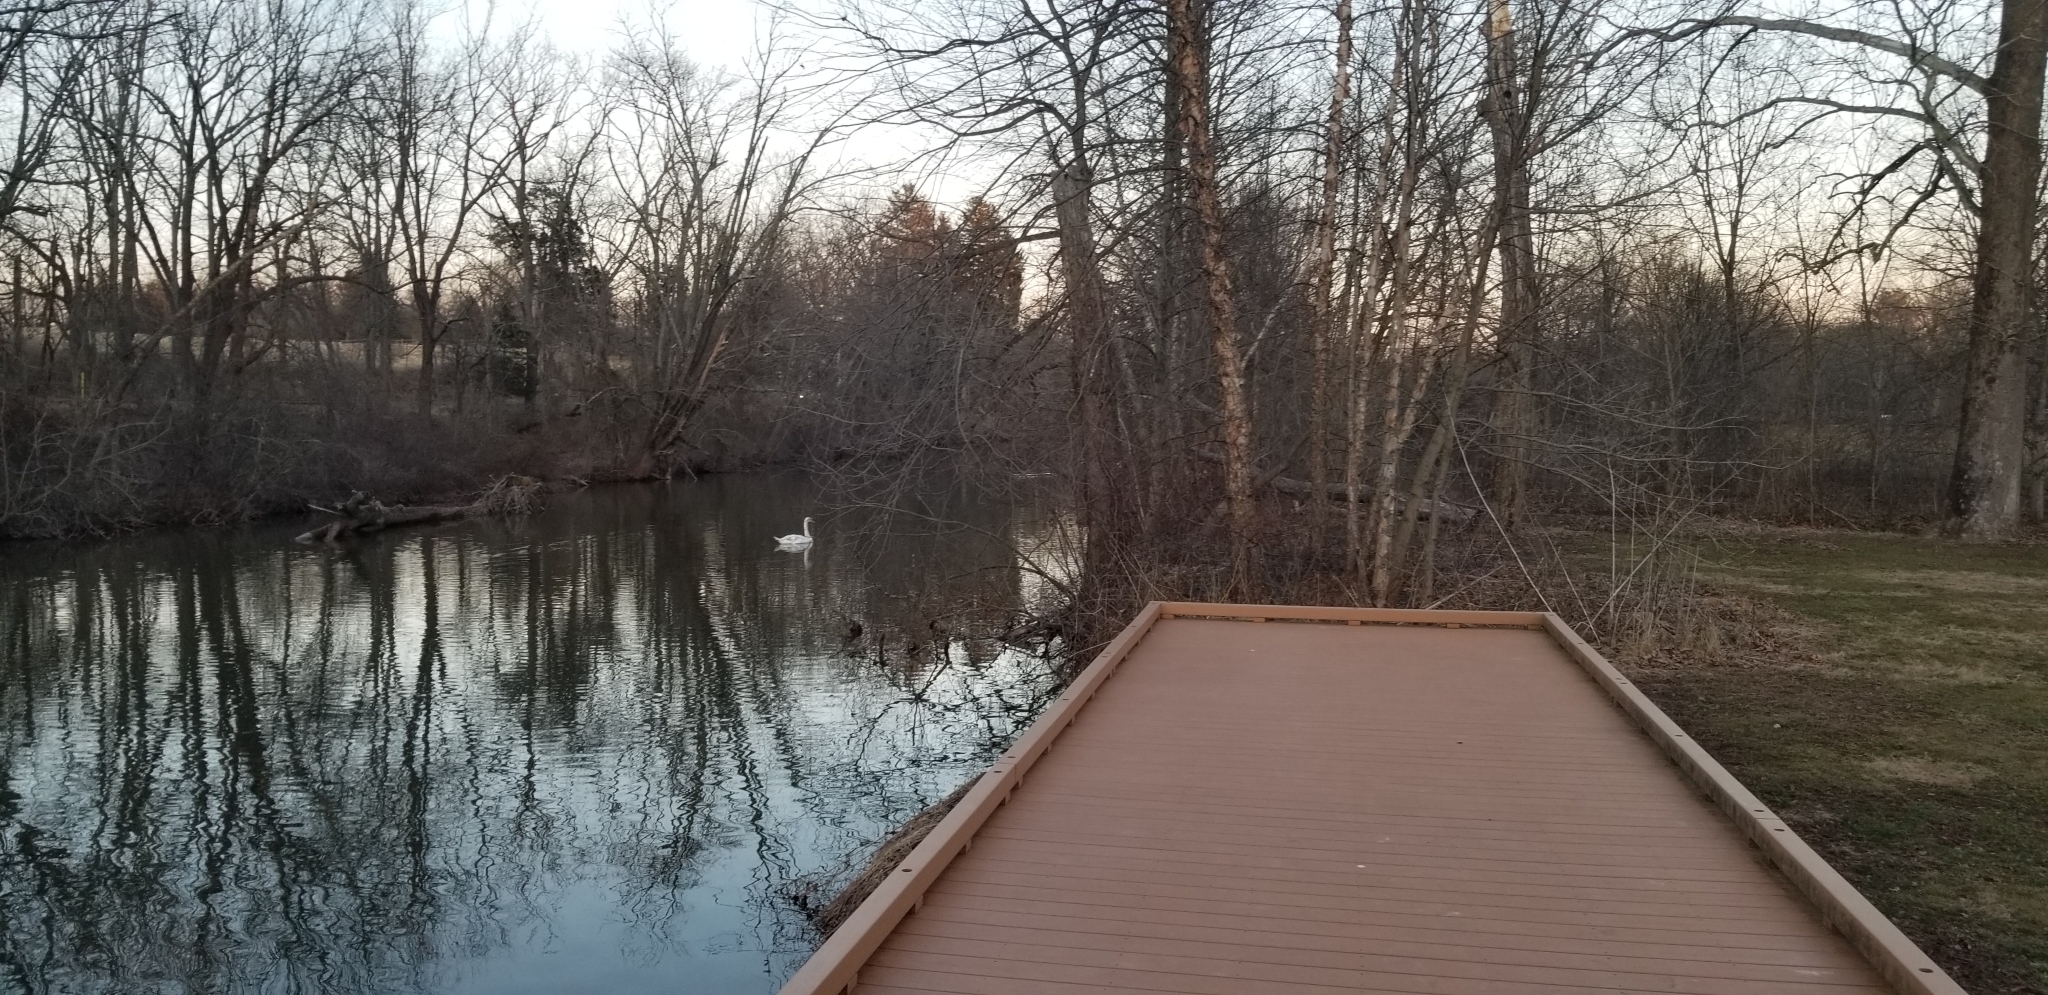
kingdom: Animalia
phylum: Chordata
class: Aves
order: Anseriformes
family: Anatidae
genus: Cygnus
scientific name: Cygnus olor
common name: Mute swan
